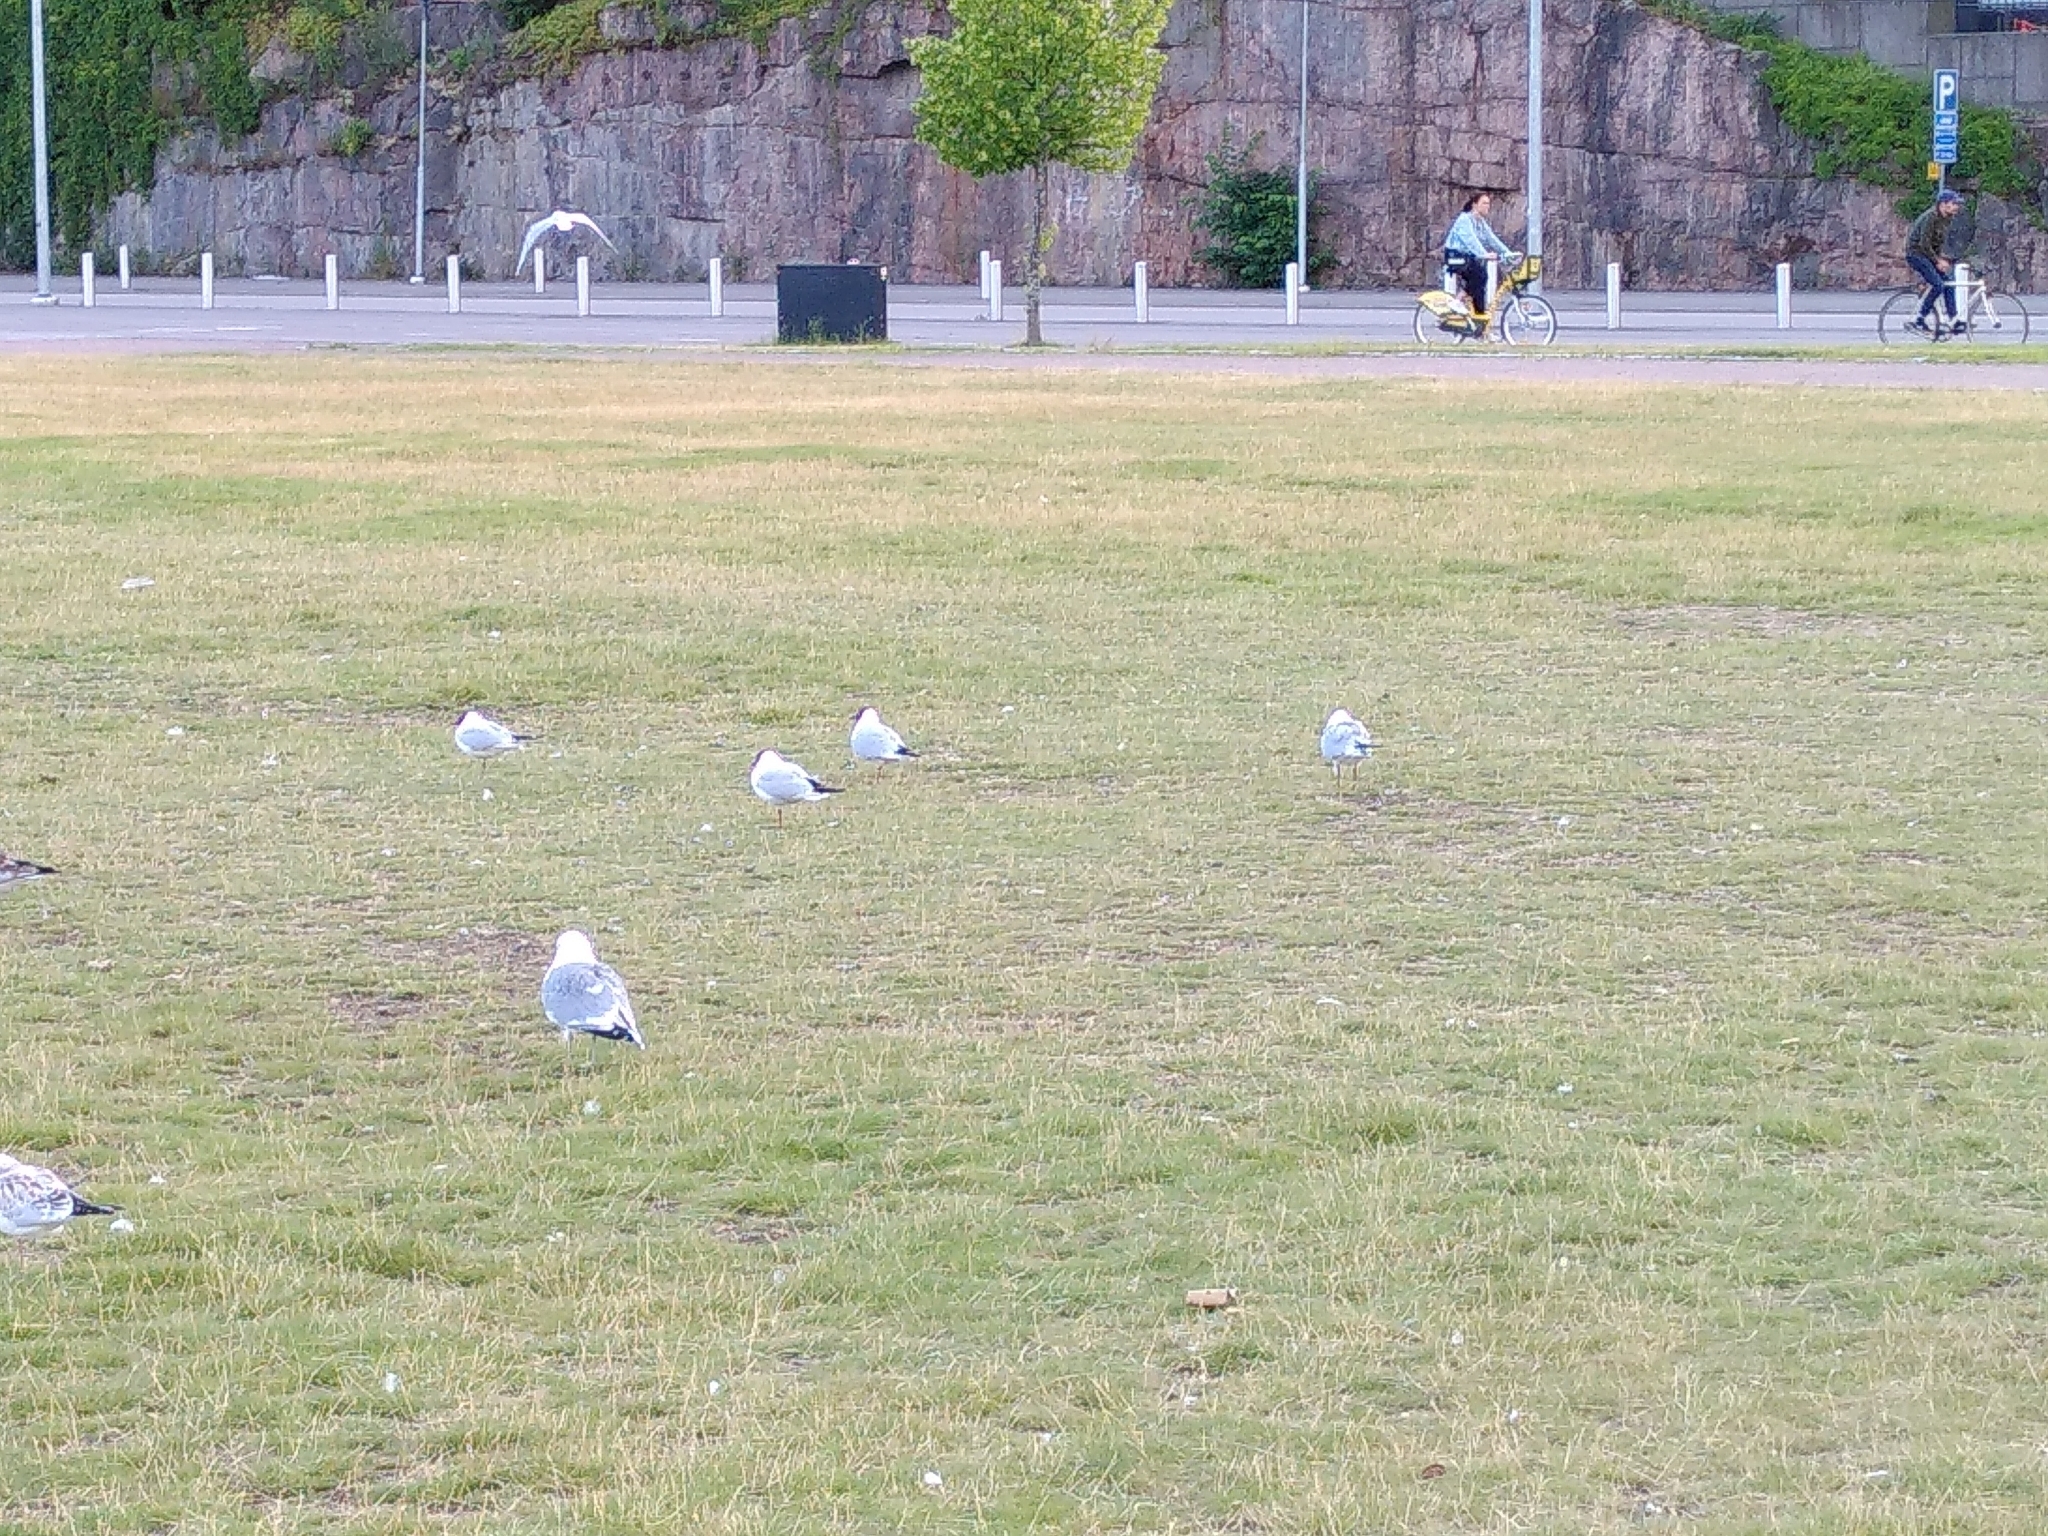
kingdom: Animalia
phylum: Chordata
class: Aves
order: Charadriiformes
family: Laridae
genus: Chroicocephalus
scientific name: Chroicocephalus ridibundus
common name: Black-headed gull
